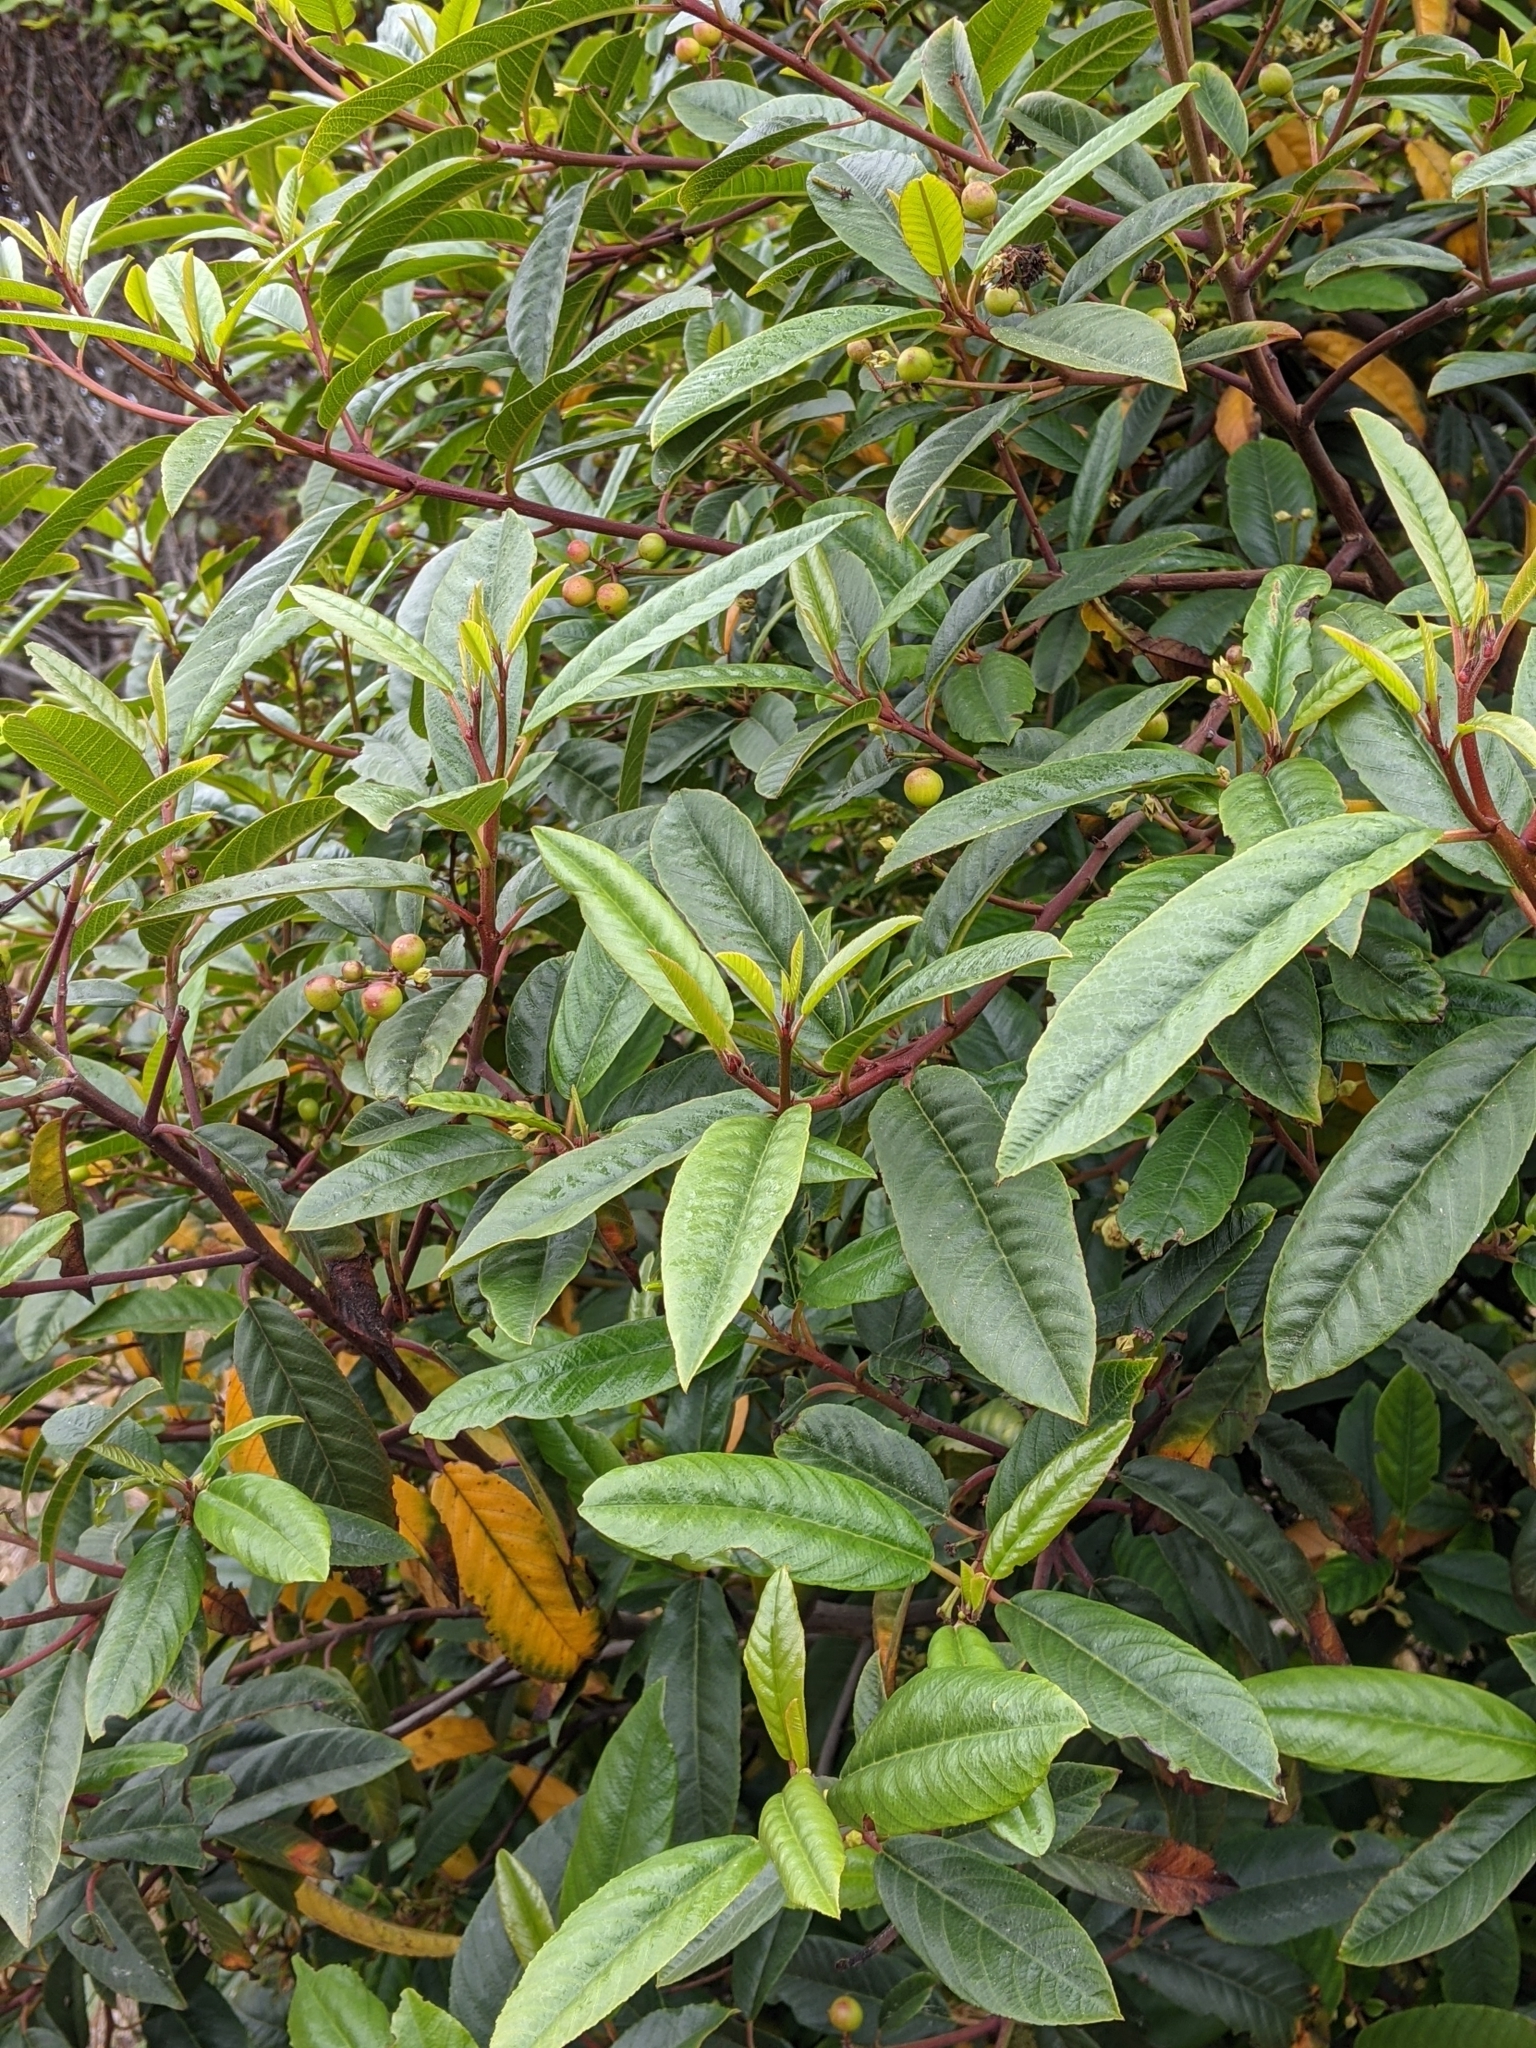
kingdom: Plantae
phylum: Tracheophyta
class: Magnoliopsida
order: Rosales
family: Rhamnaceae
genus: Frangula
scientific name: Frangula californica
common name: California buckthorn
